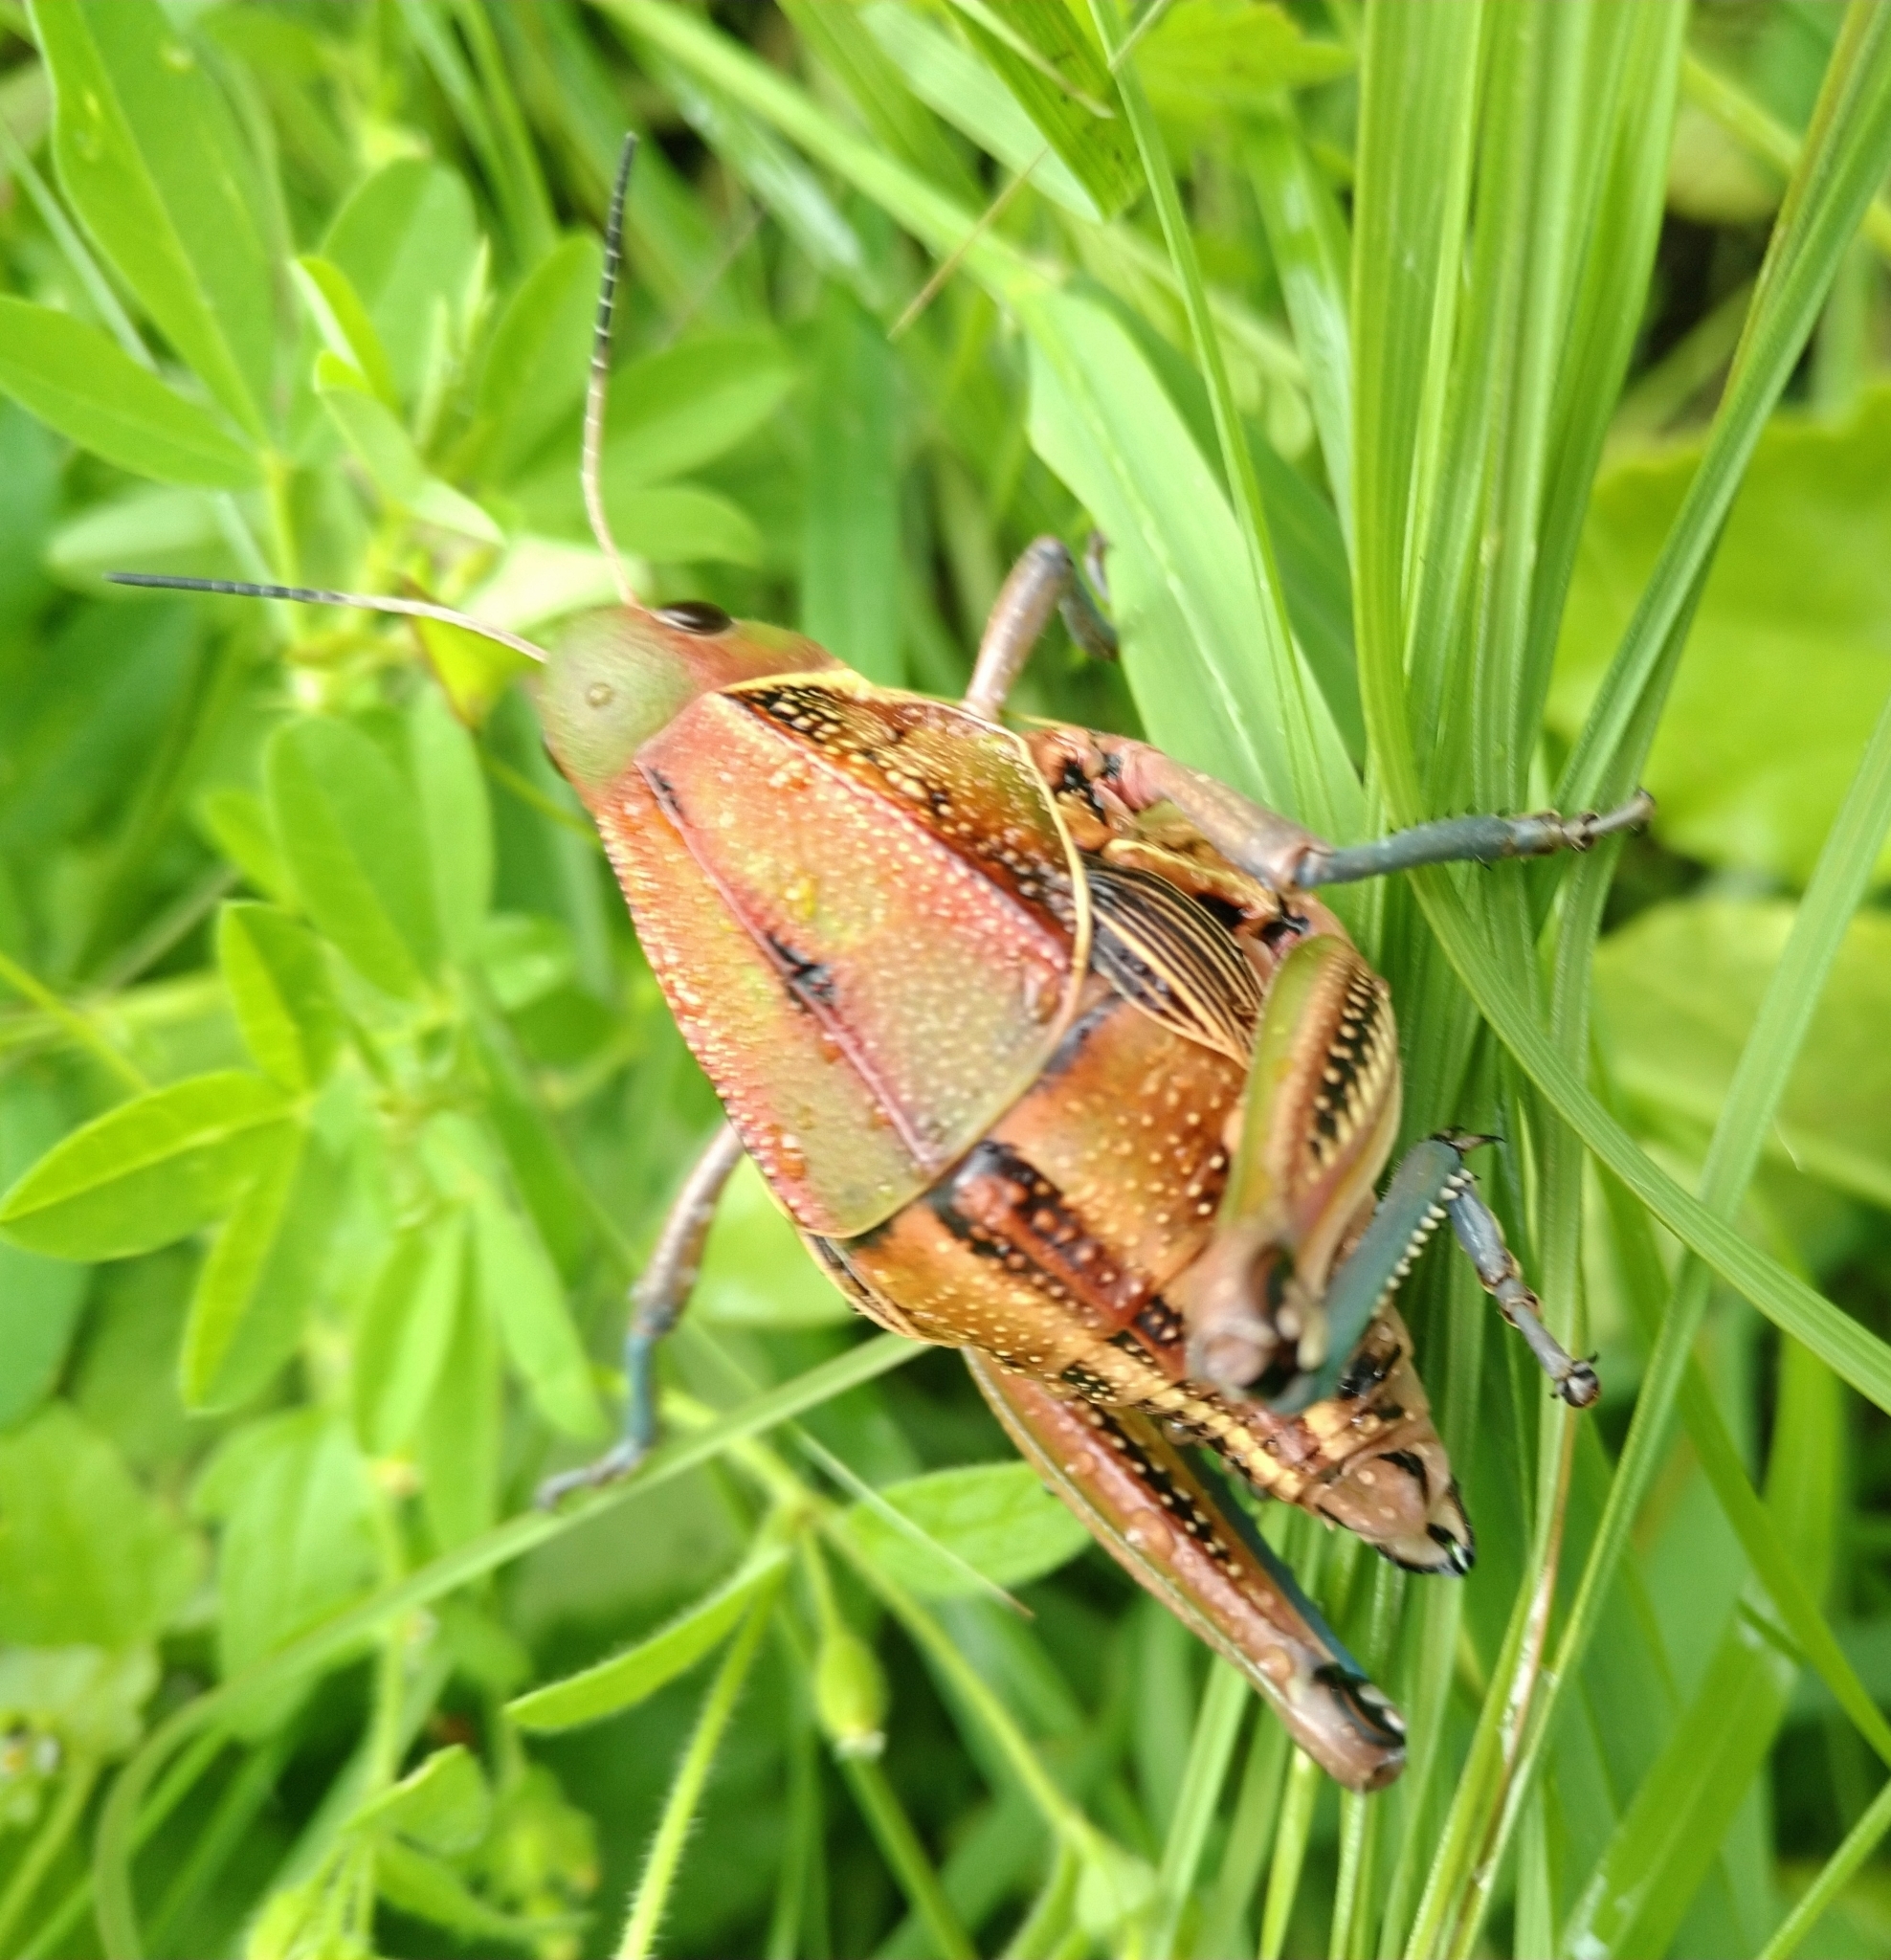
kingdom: Animalia
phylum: Arthropoda
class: Insecta
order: Orthoptera
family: Romaleidae
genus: Brachystola
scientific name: Brachystola mexicana
